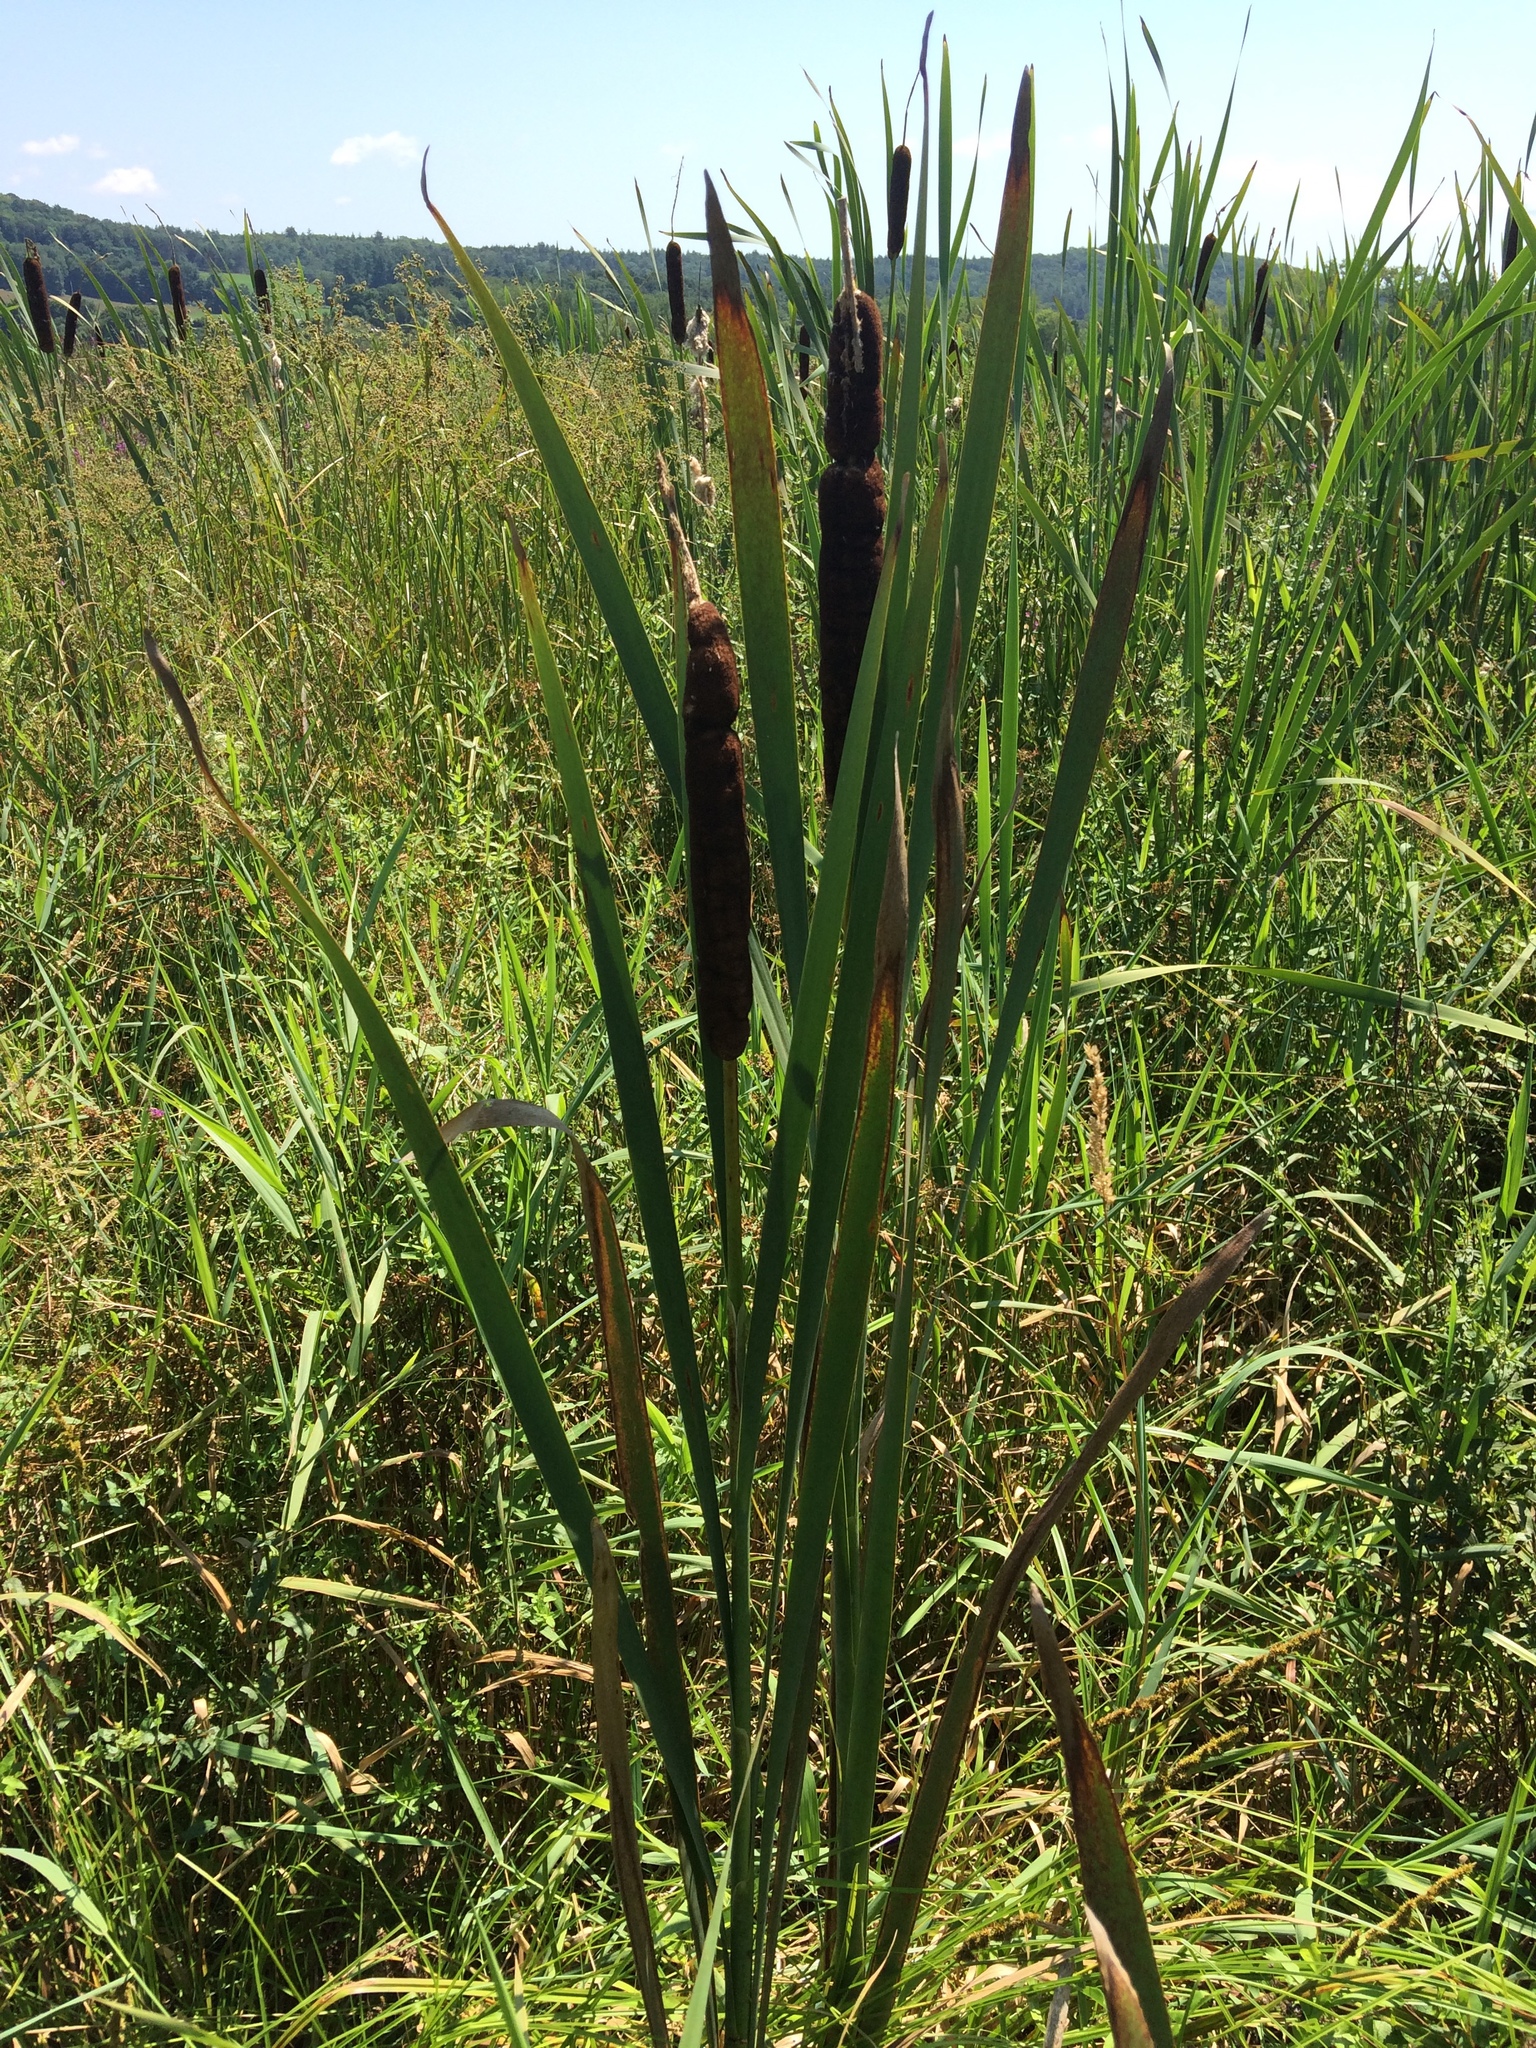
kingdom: Plantae
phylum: Tracheophyta
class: Liliopsida
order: Poales
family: Typhaceae
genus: Typha
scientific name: Typha latifolia
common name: Broadleaf cattail
